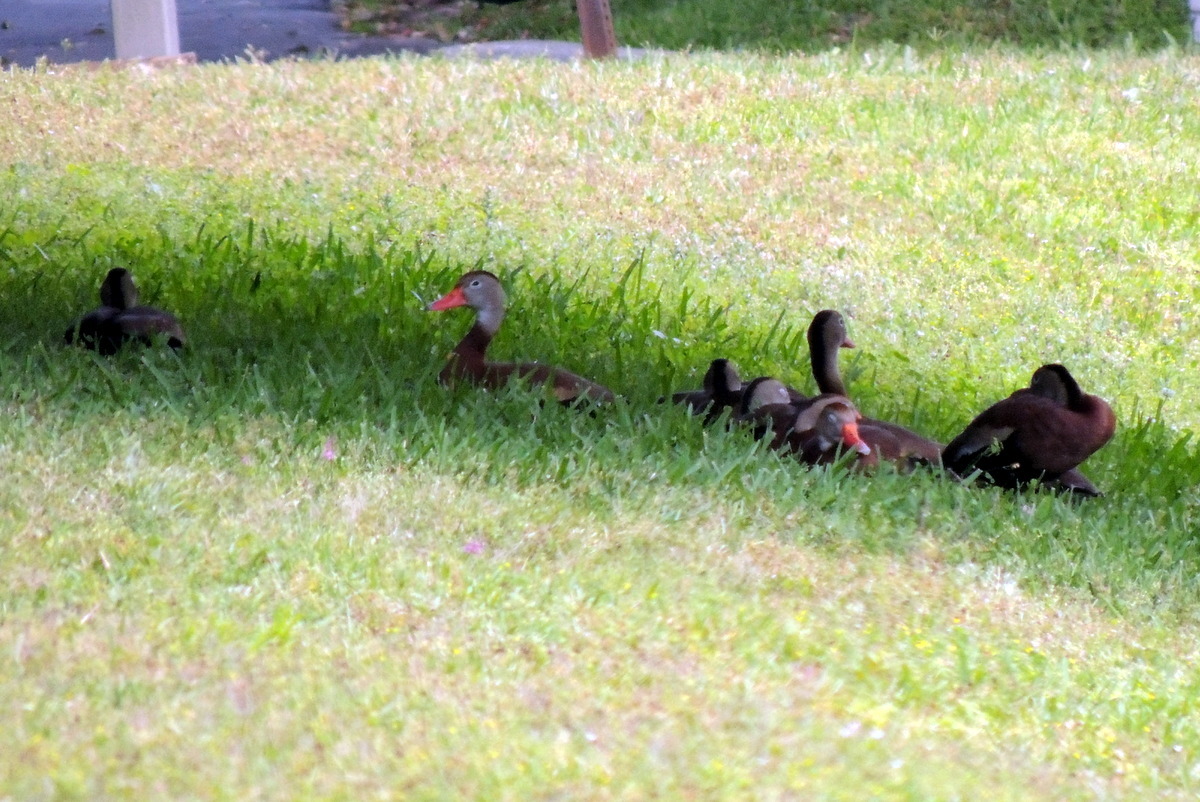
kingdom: Animalia
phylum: Chordata
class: Aves
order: Anseriformes
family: Anatidae
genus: Dendrocygna
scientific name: Dendrocygna autumnalis
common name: Black-bellied whistling duck
